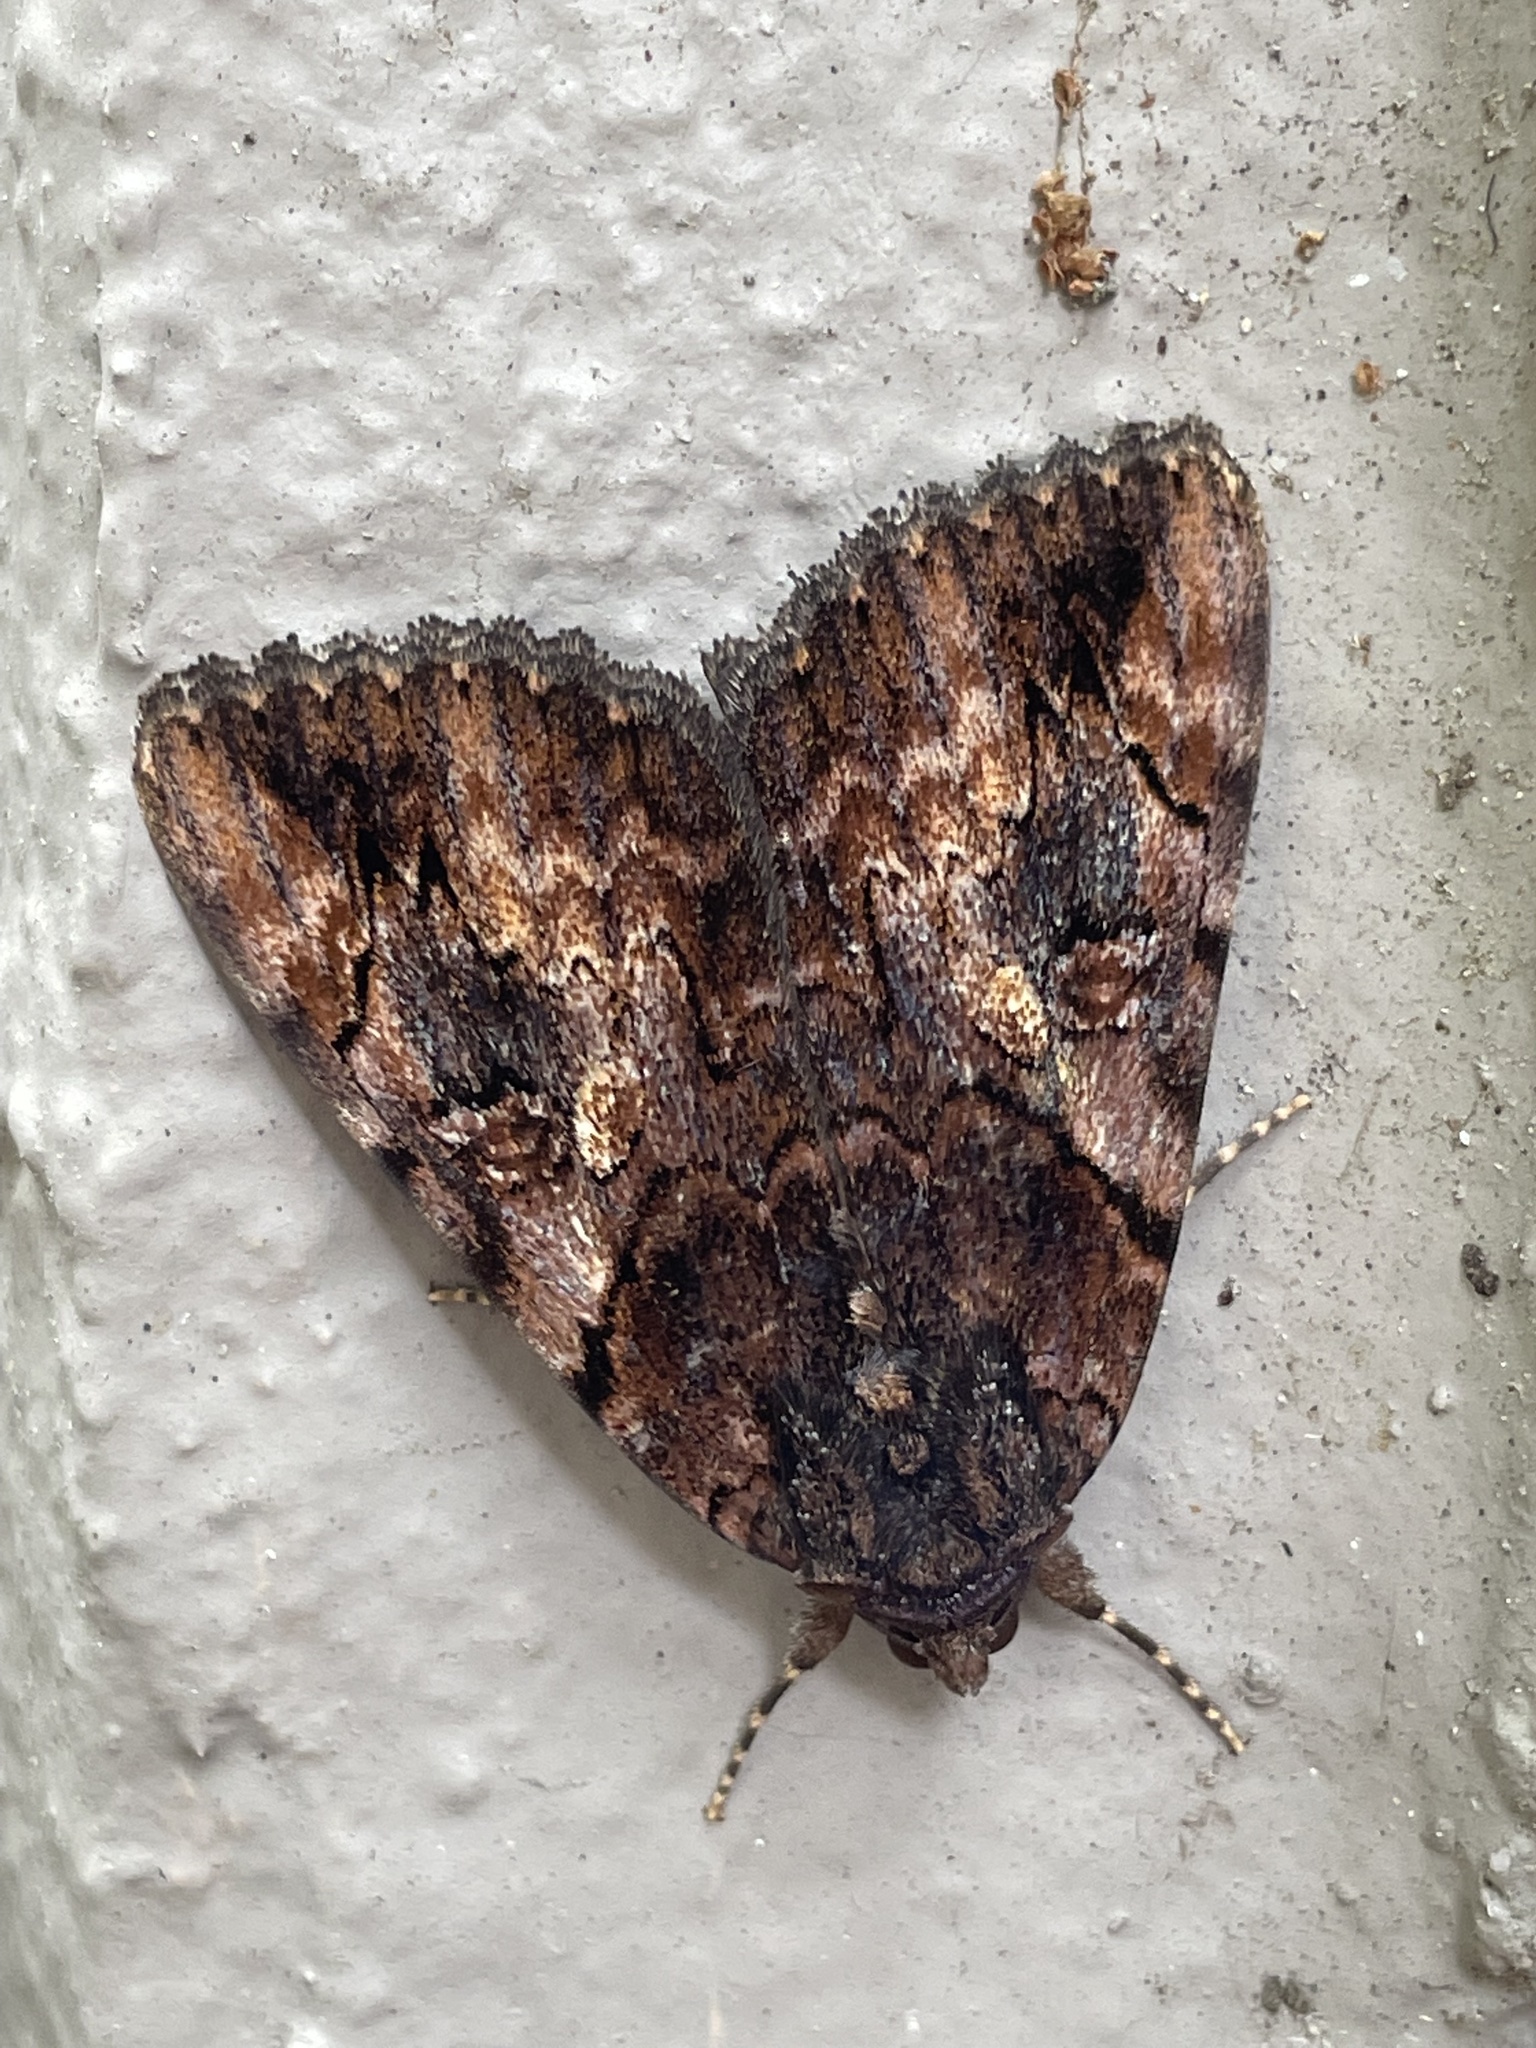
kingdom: Animalia
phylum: Arthropoda
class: Insecta
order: Lepidoptera
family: Erebidae
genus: Catocala
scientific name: Catocala muliercula
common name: The little wife underwing
